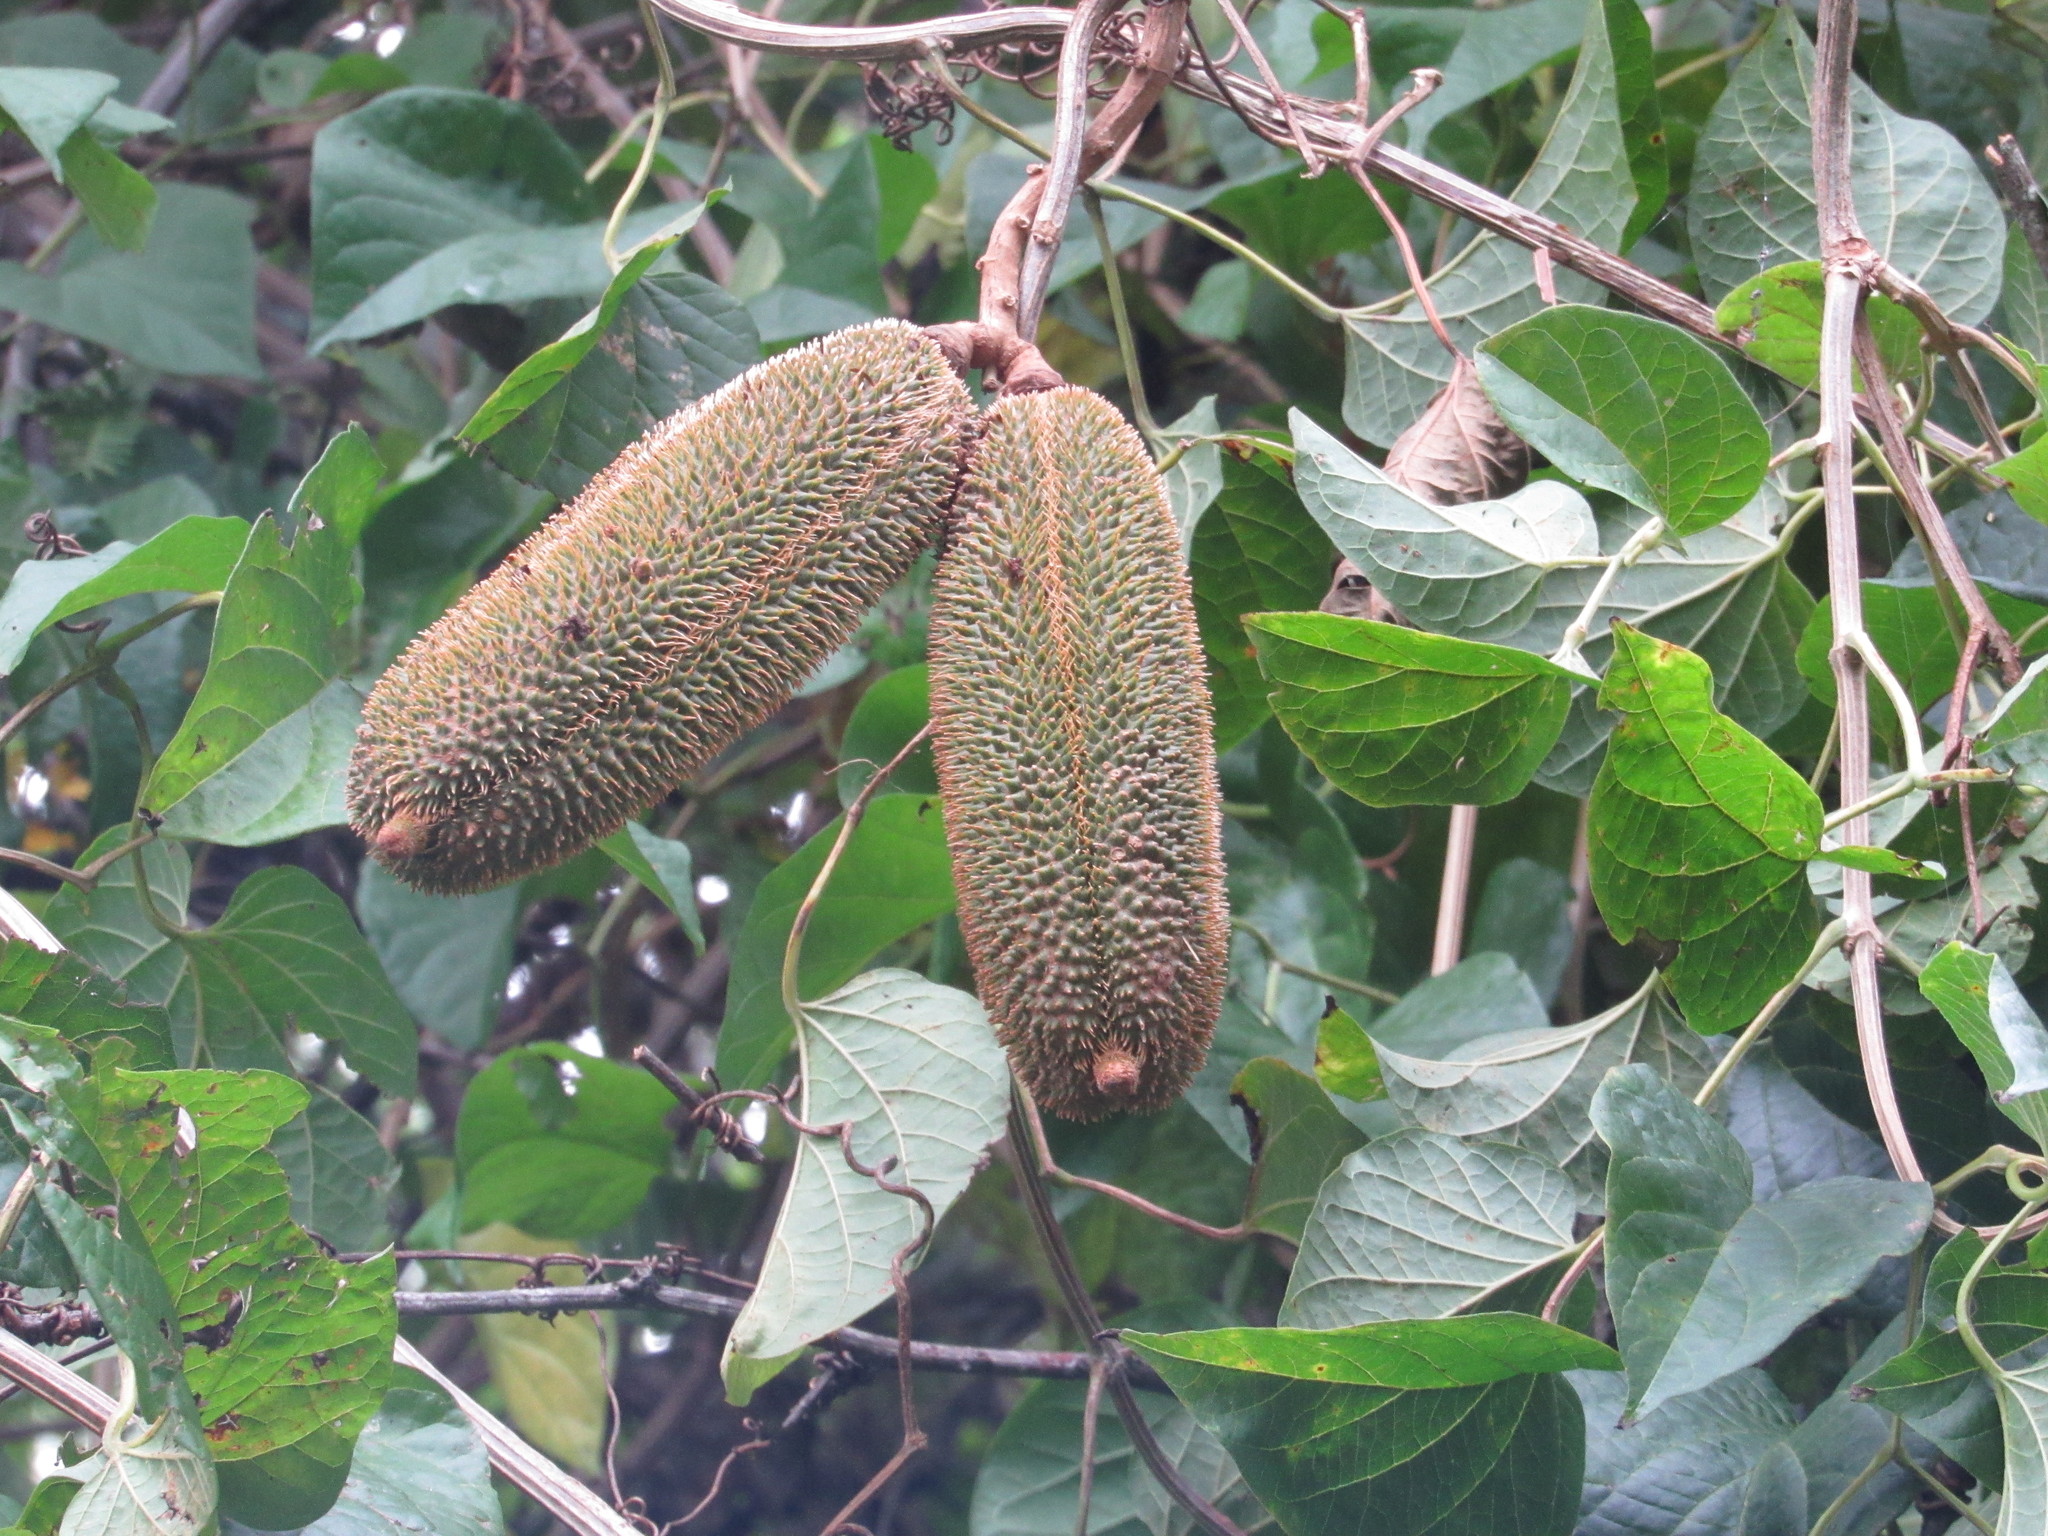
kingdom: Plantae
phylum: Tracheophyta
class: Magnoliopsida
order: Lamiales
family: Bignoniaceae
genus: Amphilophium
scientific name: Amphilophium crucigerum
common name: Monkey comb
